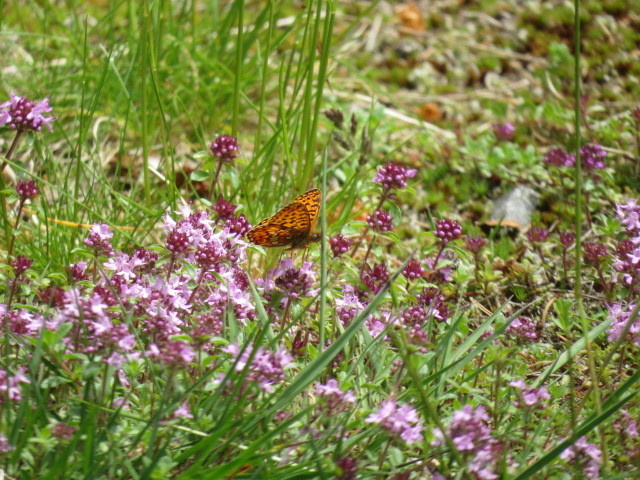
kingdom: Animalia
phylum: Arthropoda
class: Insecta
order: Lepidoptera
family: Nymphalidae
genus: Clossiana
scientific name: Clossiana euphrosyne
